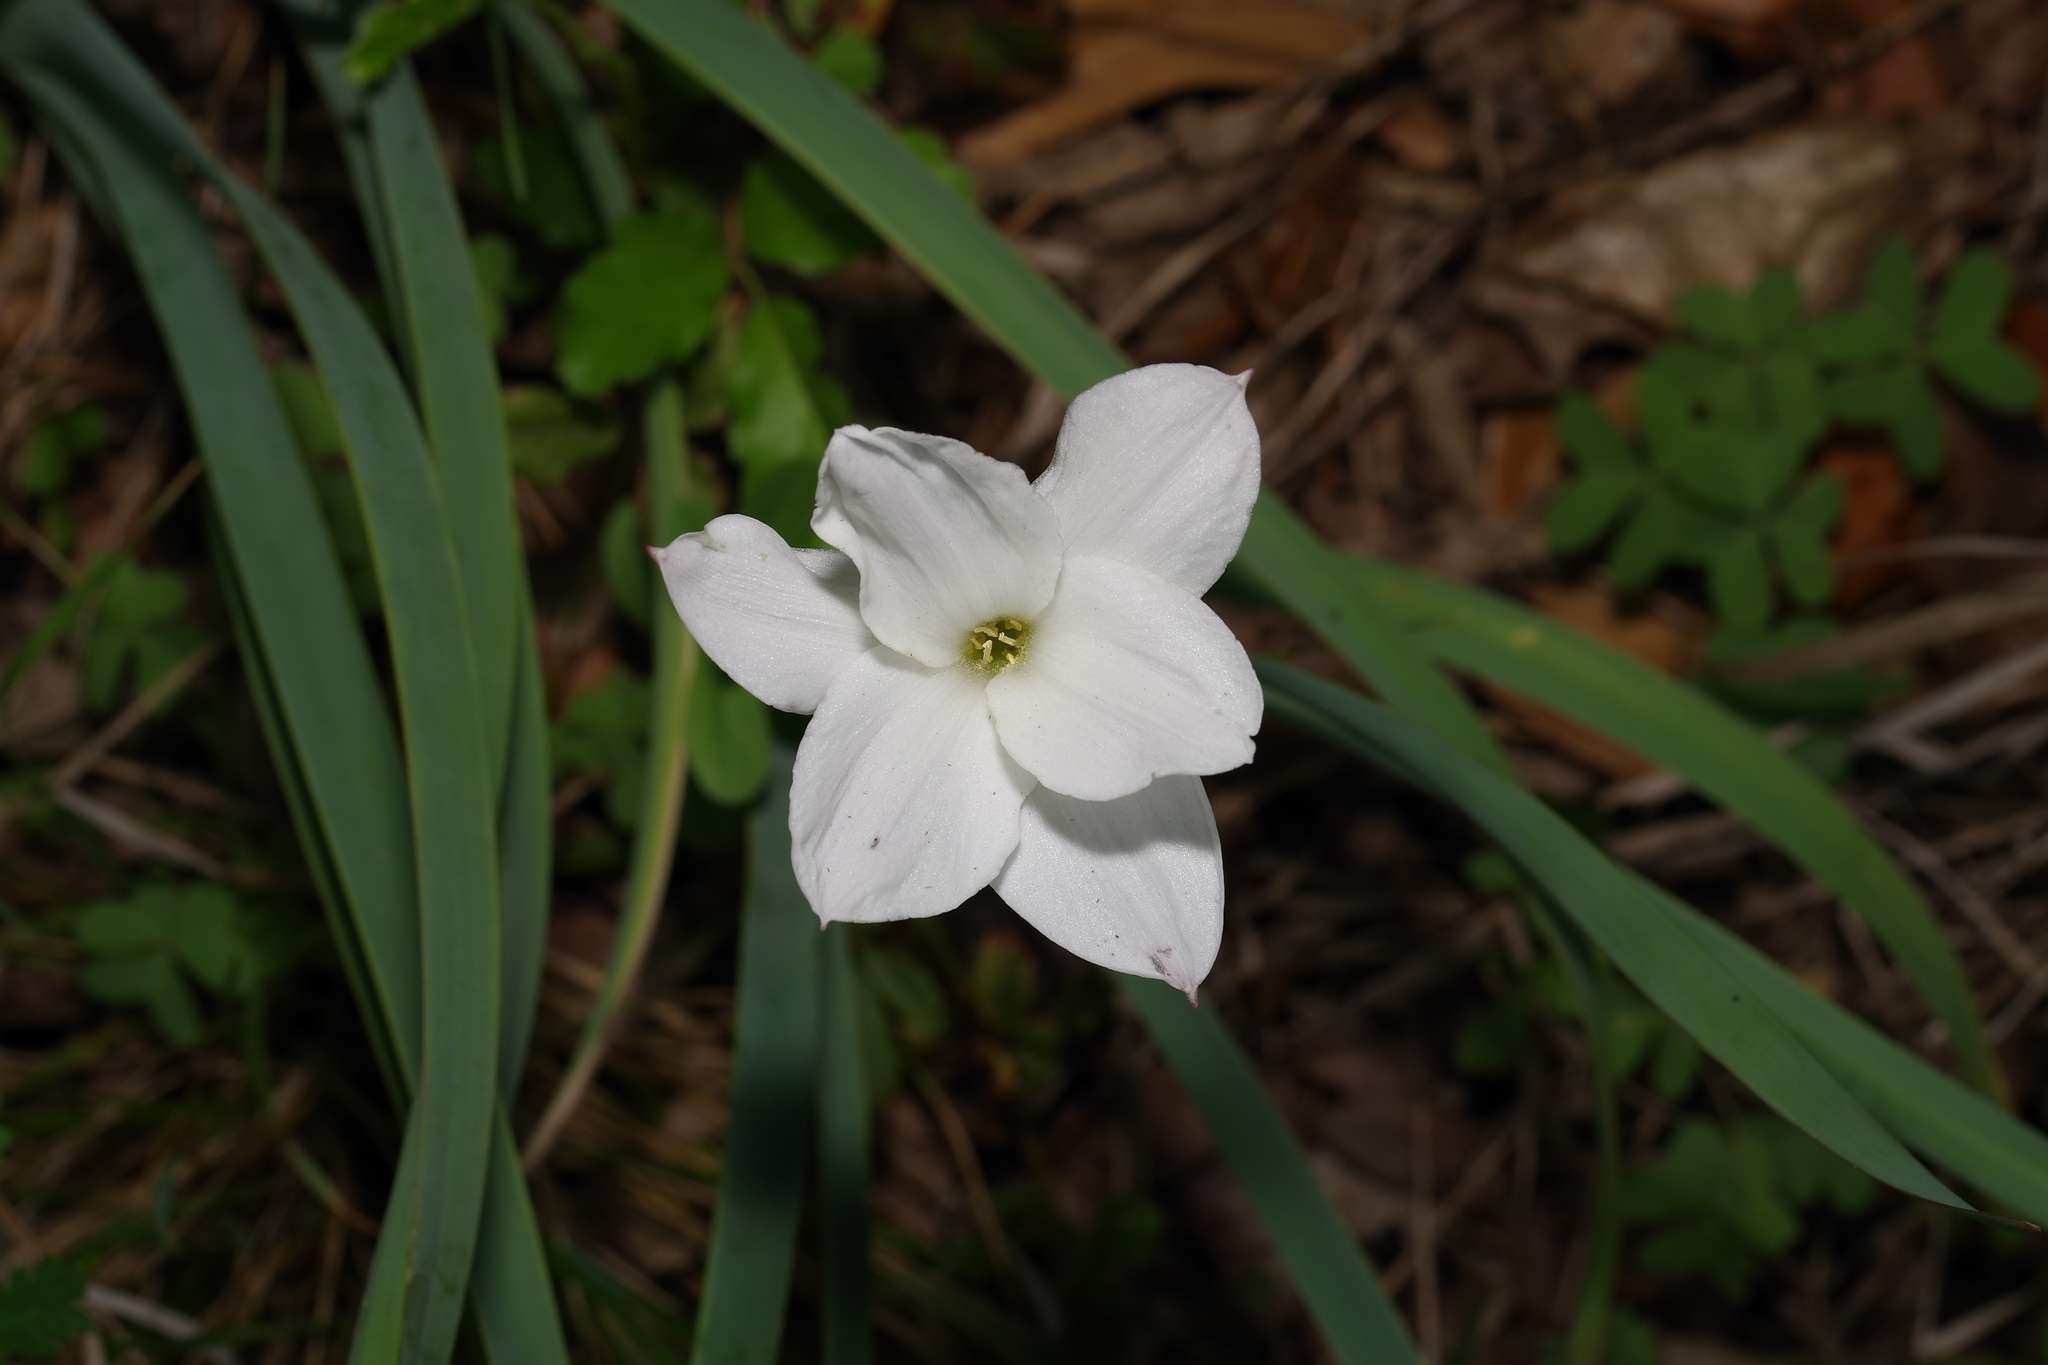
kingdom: Plantae
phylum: Tracheophyta
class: Liliopsida
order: Asparagales
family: Amaryllidaceae
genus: Zephyranthes
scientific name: Zephyranthes drummondii
